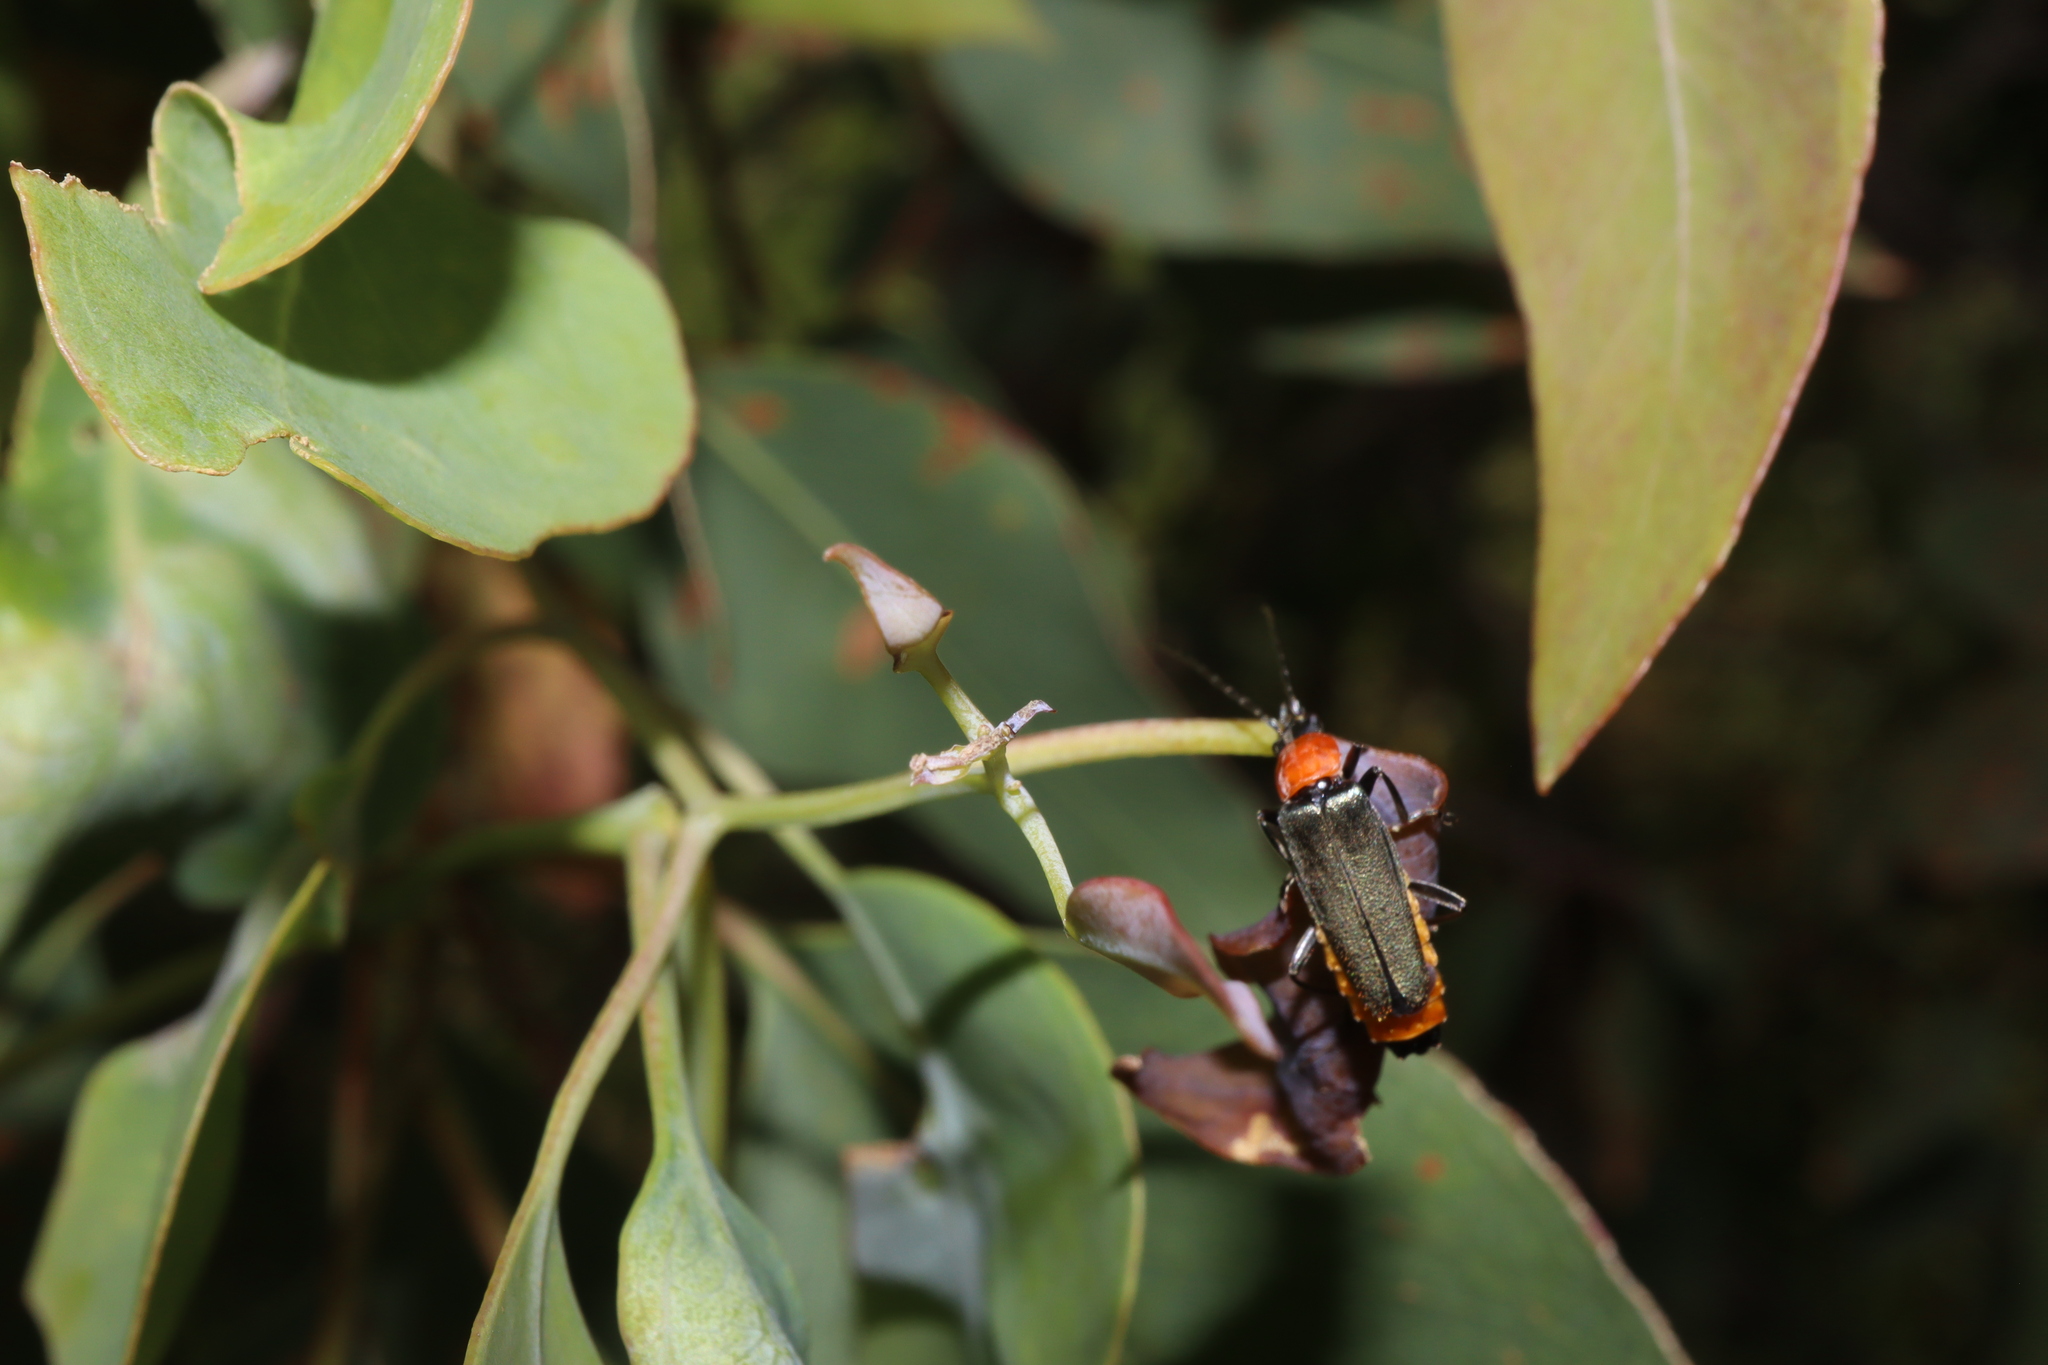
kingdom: Animalia
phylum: Arthropoda
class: Insecta
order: Coleoptera
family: Cantharidae
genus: Chauliognathus
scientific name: Chauliognathus
